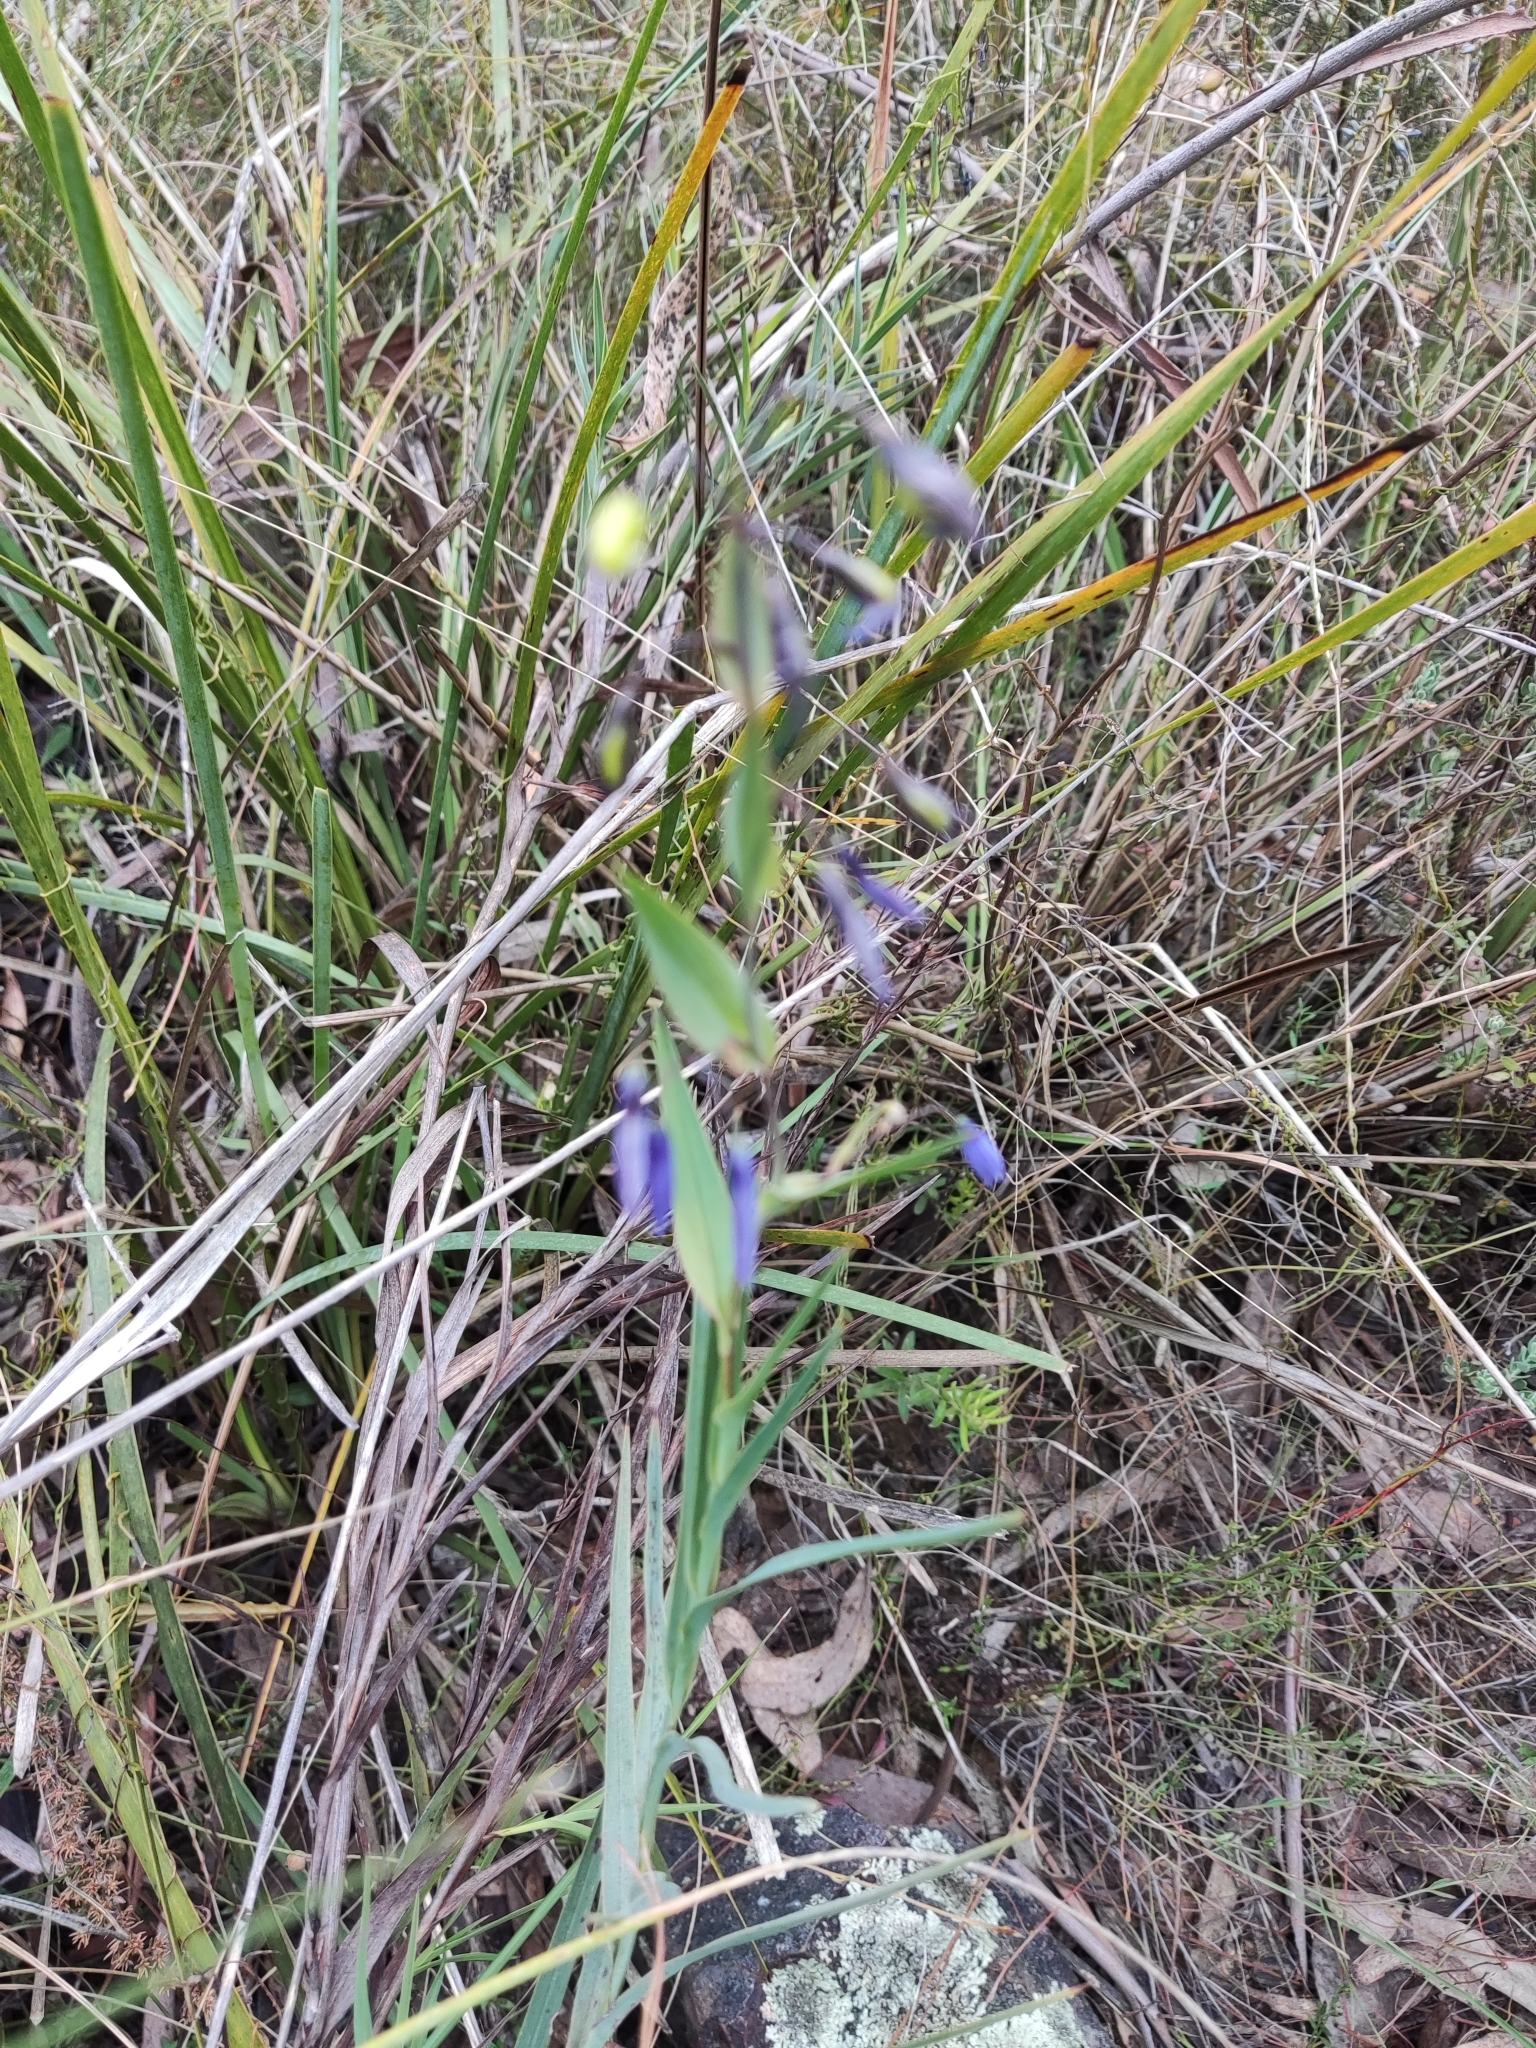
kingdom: Plantae
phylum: Tracheophyta
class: Liliopsida
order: Asparagales
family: Asphodelaceae
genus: Stypandra
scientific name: Stypandra glauca
